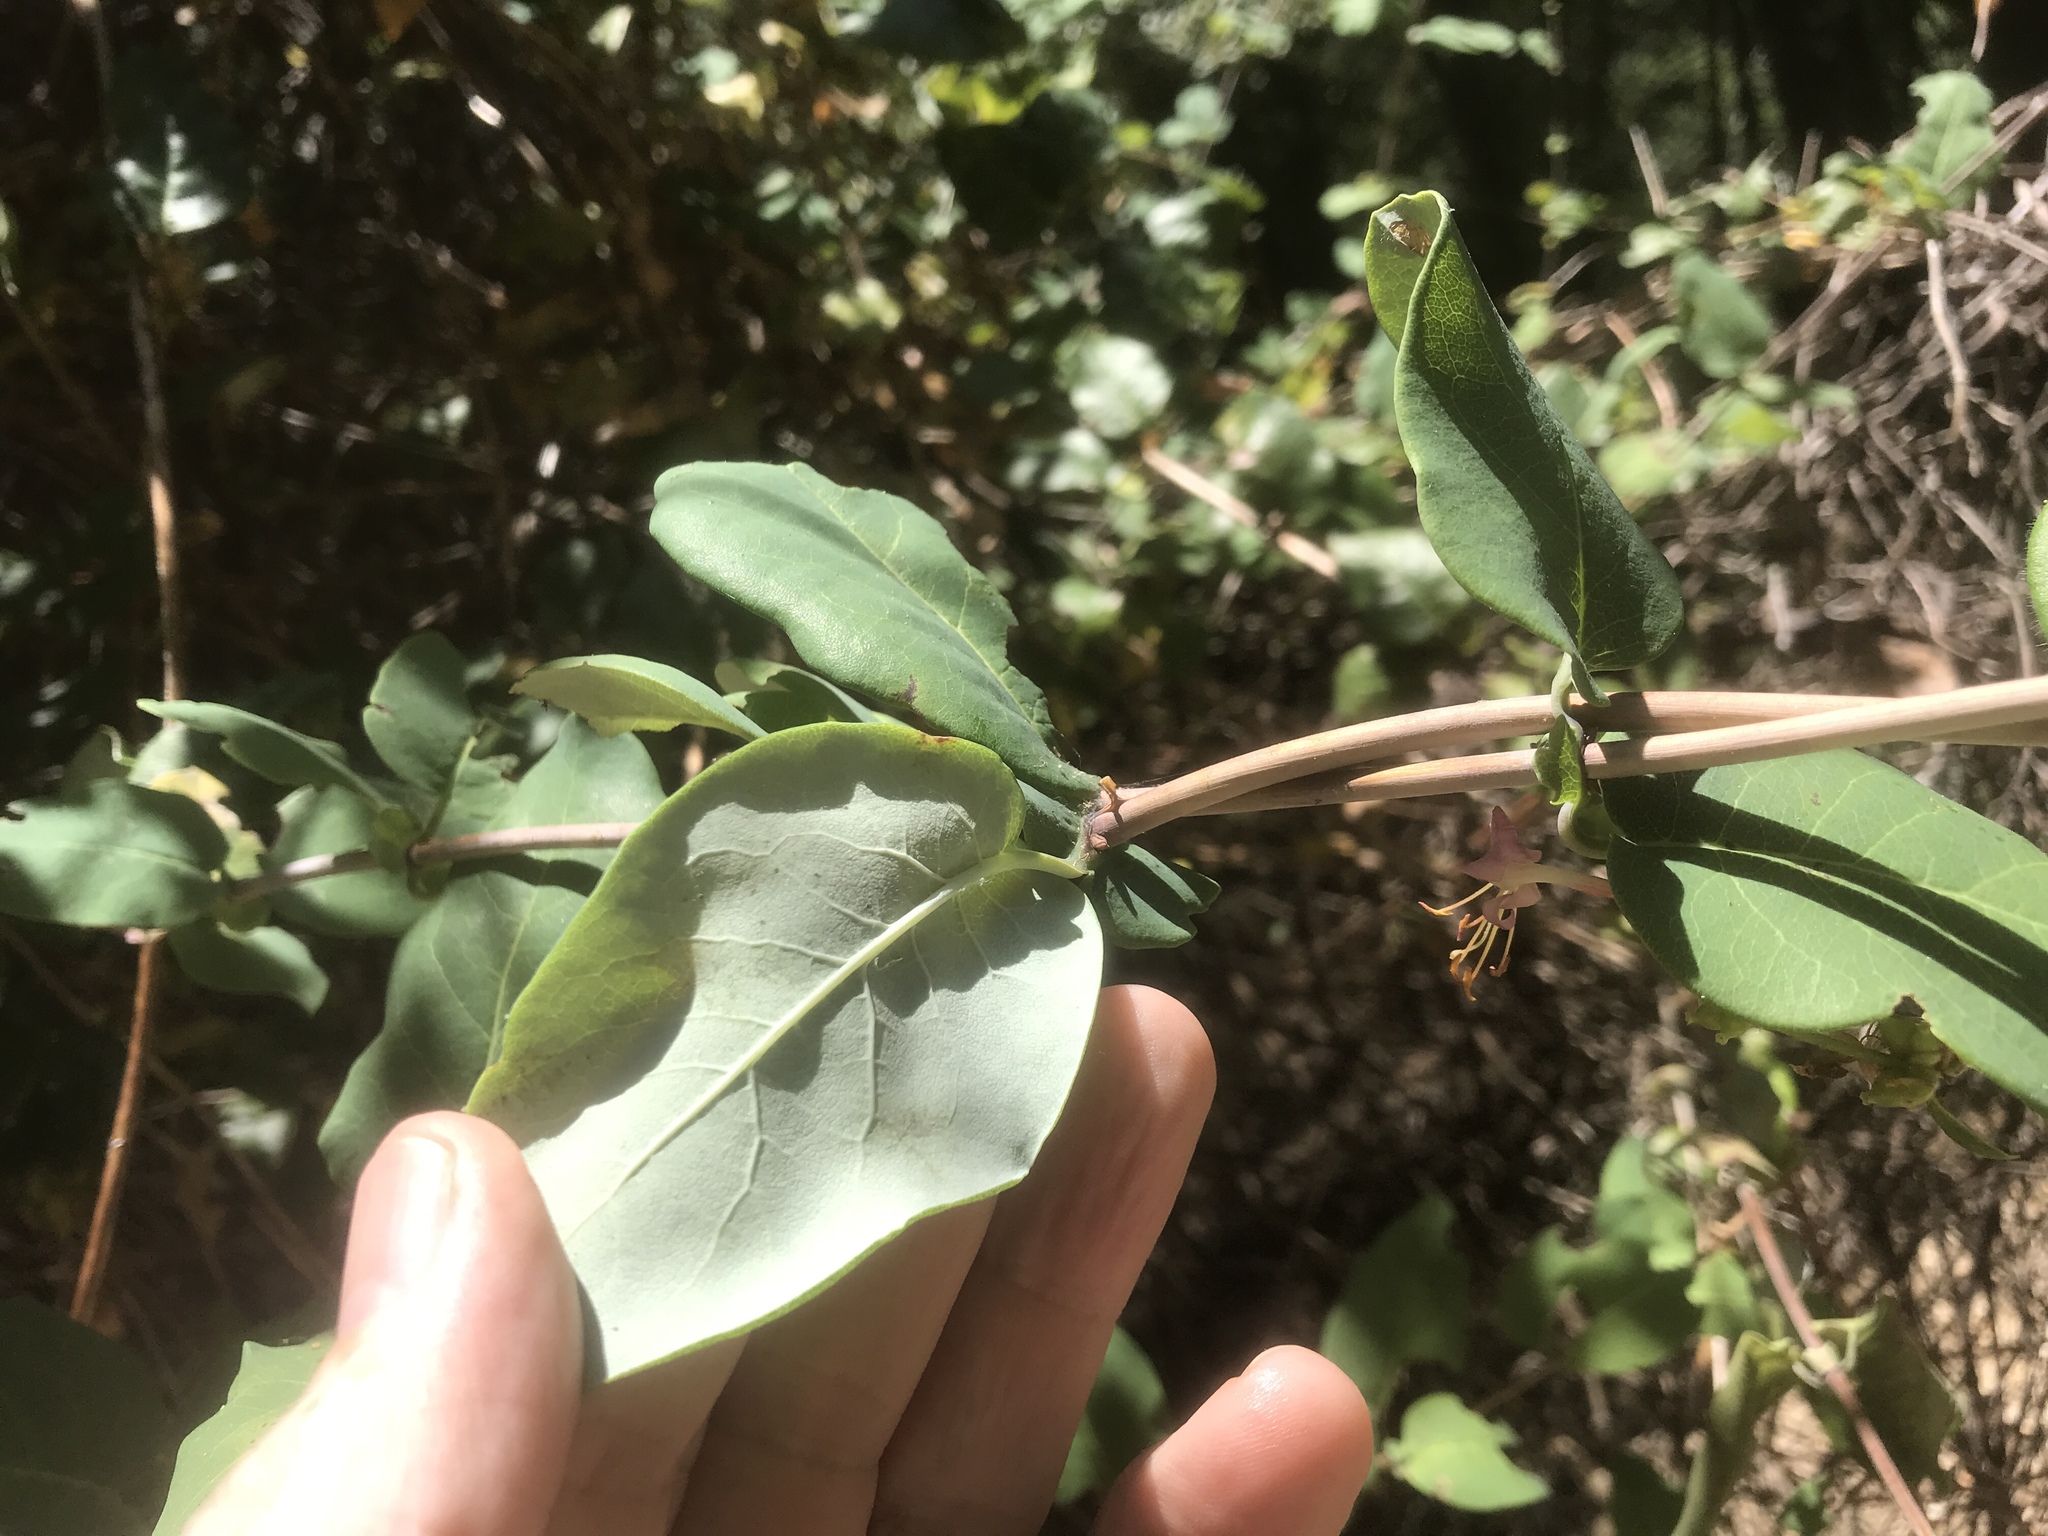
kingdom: Plantae
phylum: Tracheophyta
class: Magnoliopsida
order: Dipsacales
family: Caprifoliaceae
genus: Lonicera
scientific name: Lonicera hispidula
